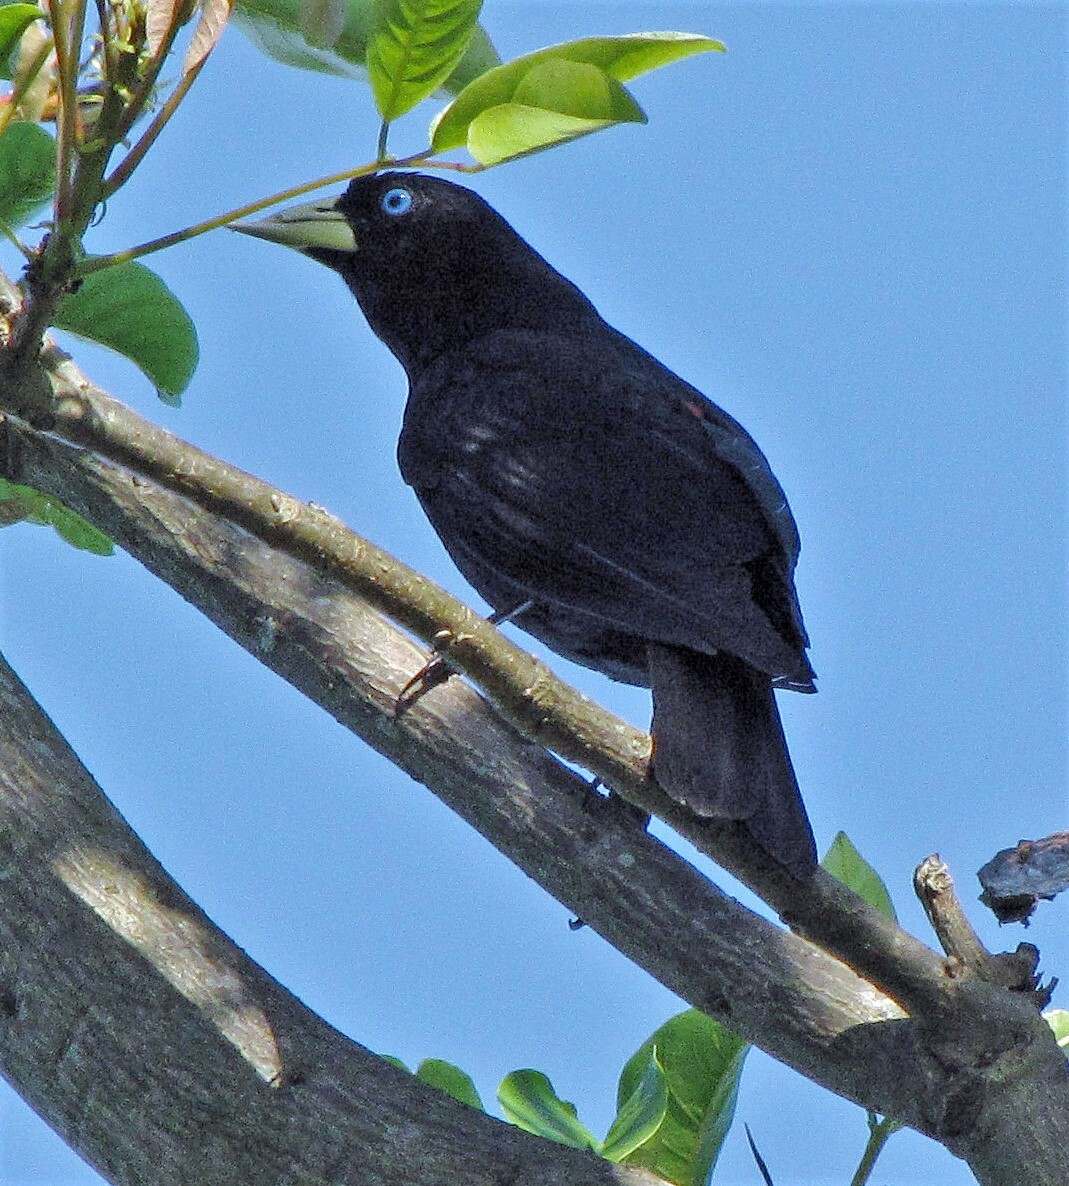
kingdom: Animalia
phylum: Chordata
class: Aves
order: Passeriformes
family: Icteridae
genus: Cacicus
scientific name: Cacicus haemorrhous
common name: Red-rumped cacique
